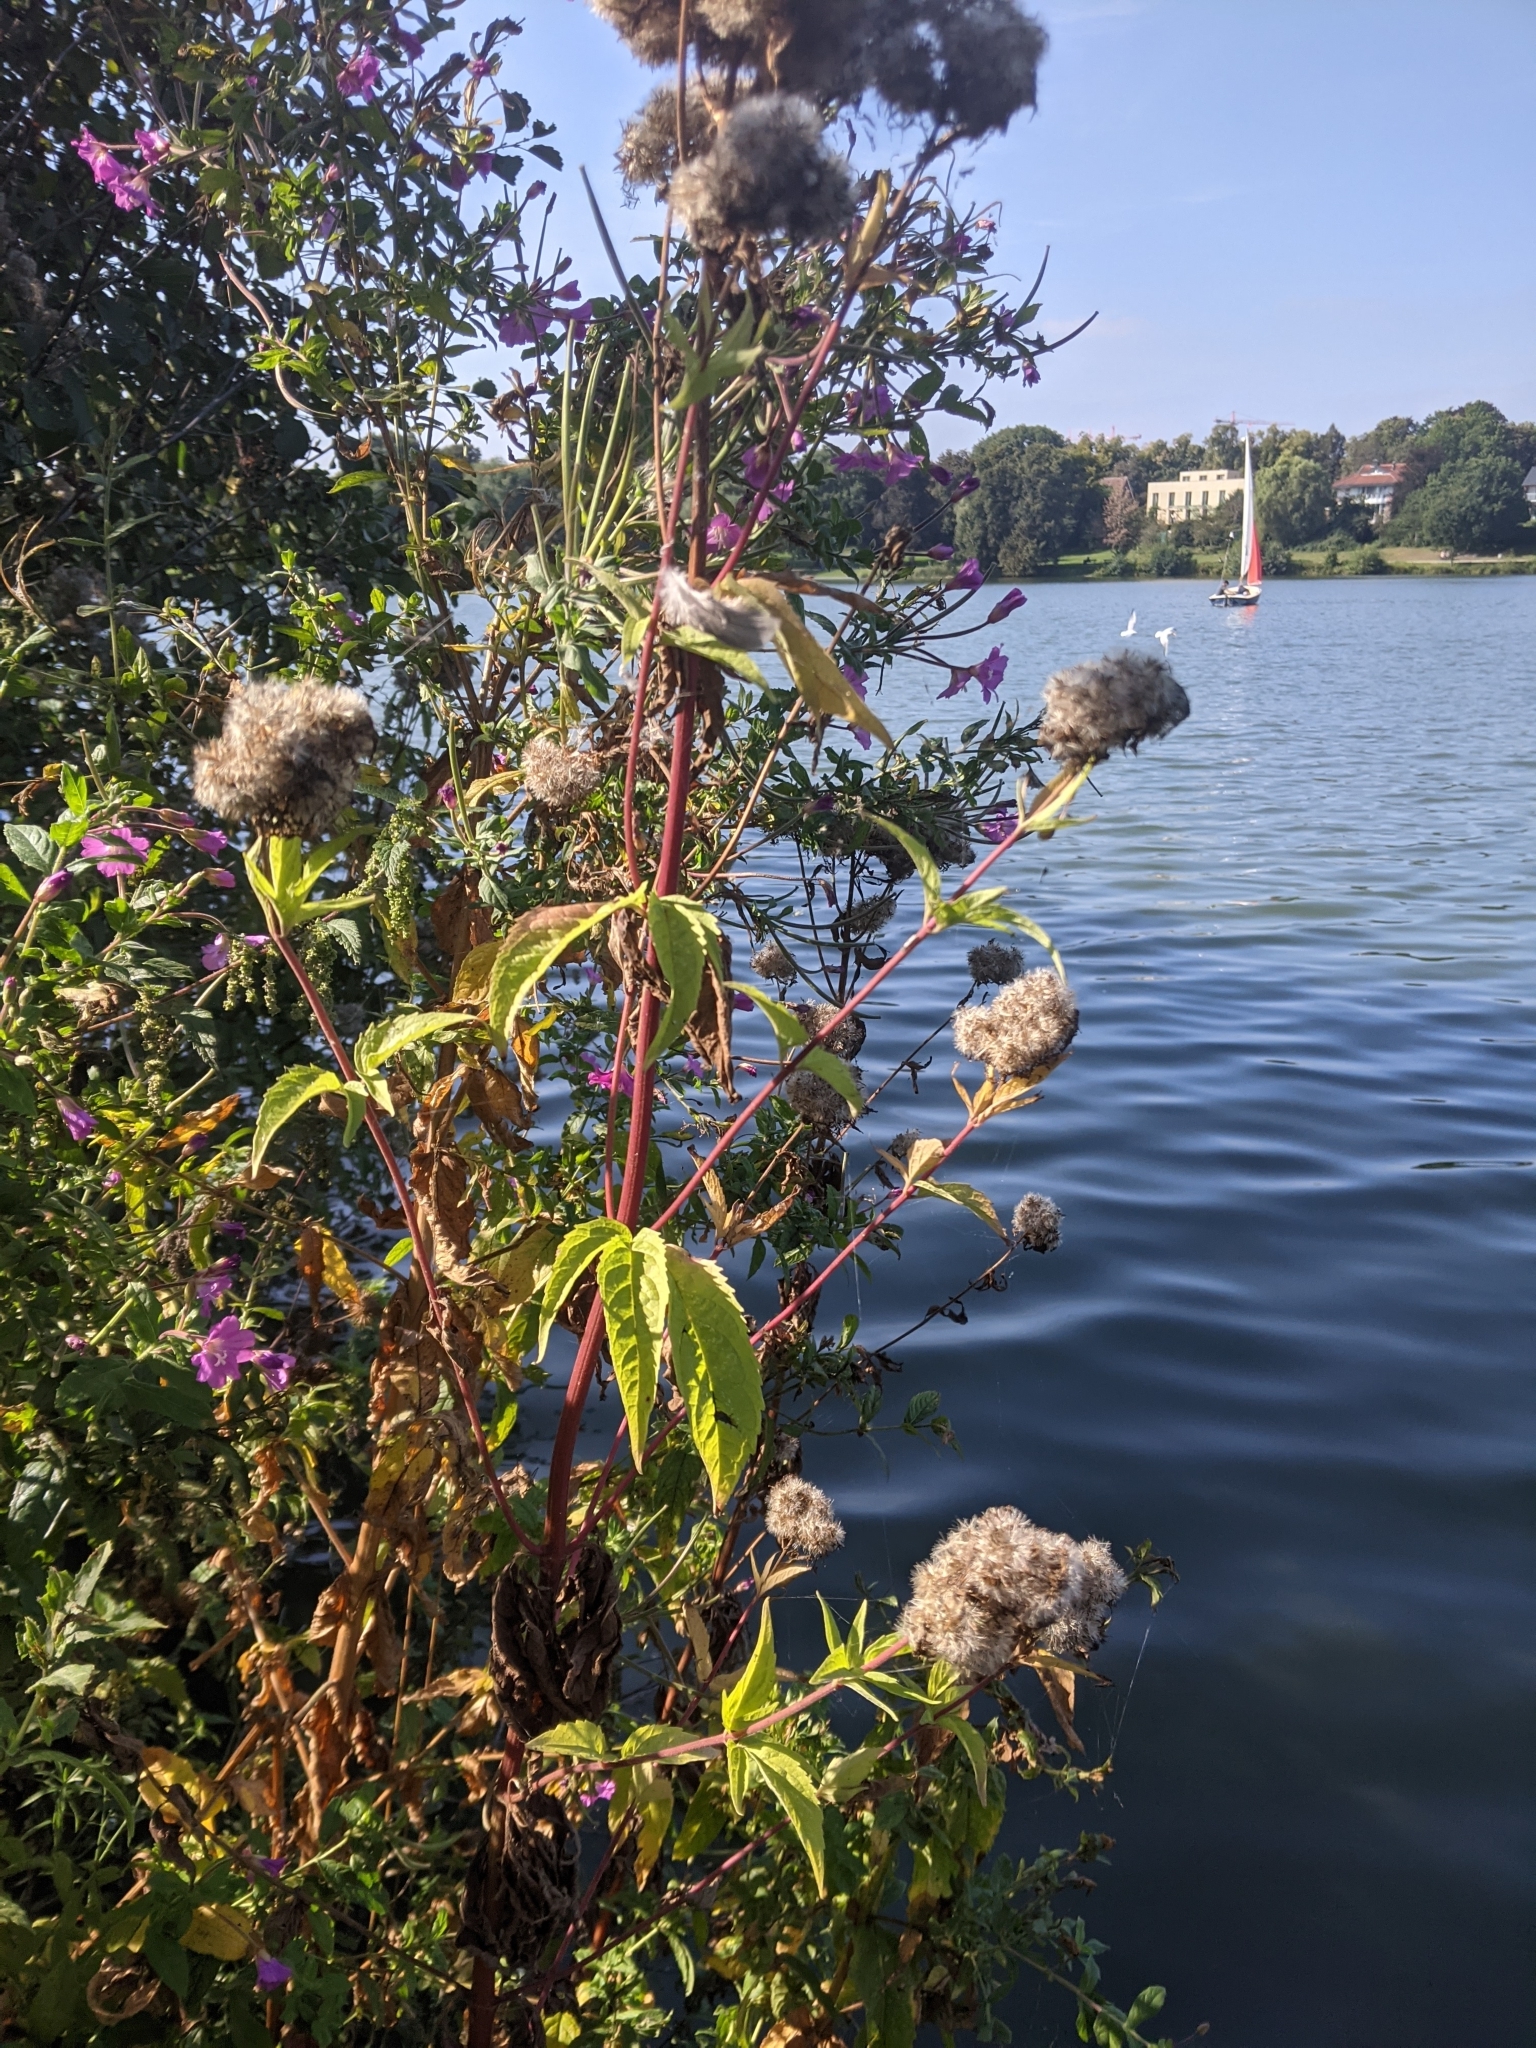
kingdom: Plantae
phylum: Tracheophyta
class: Magnoliopsida
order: Asterales
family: Asteraceae
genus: Eupatorium
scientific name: Eupatorium cannabinum
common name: Hemp-agrimony
